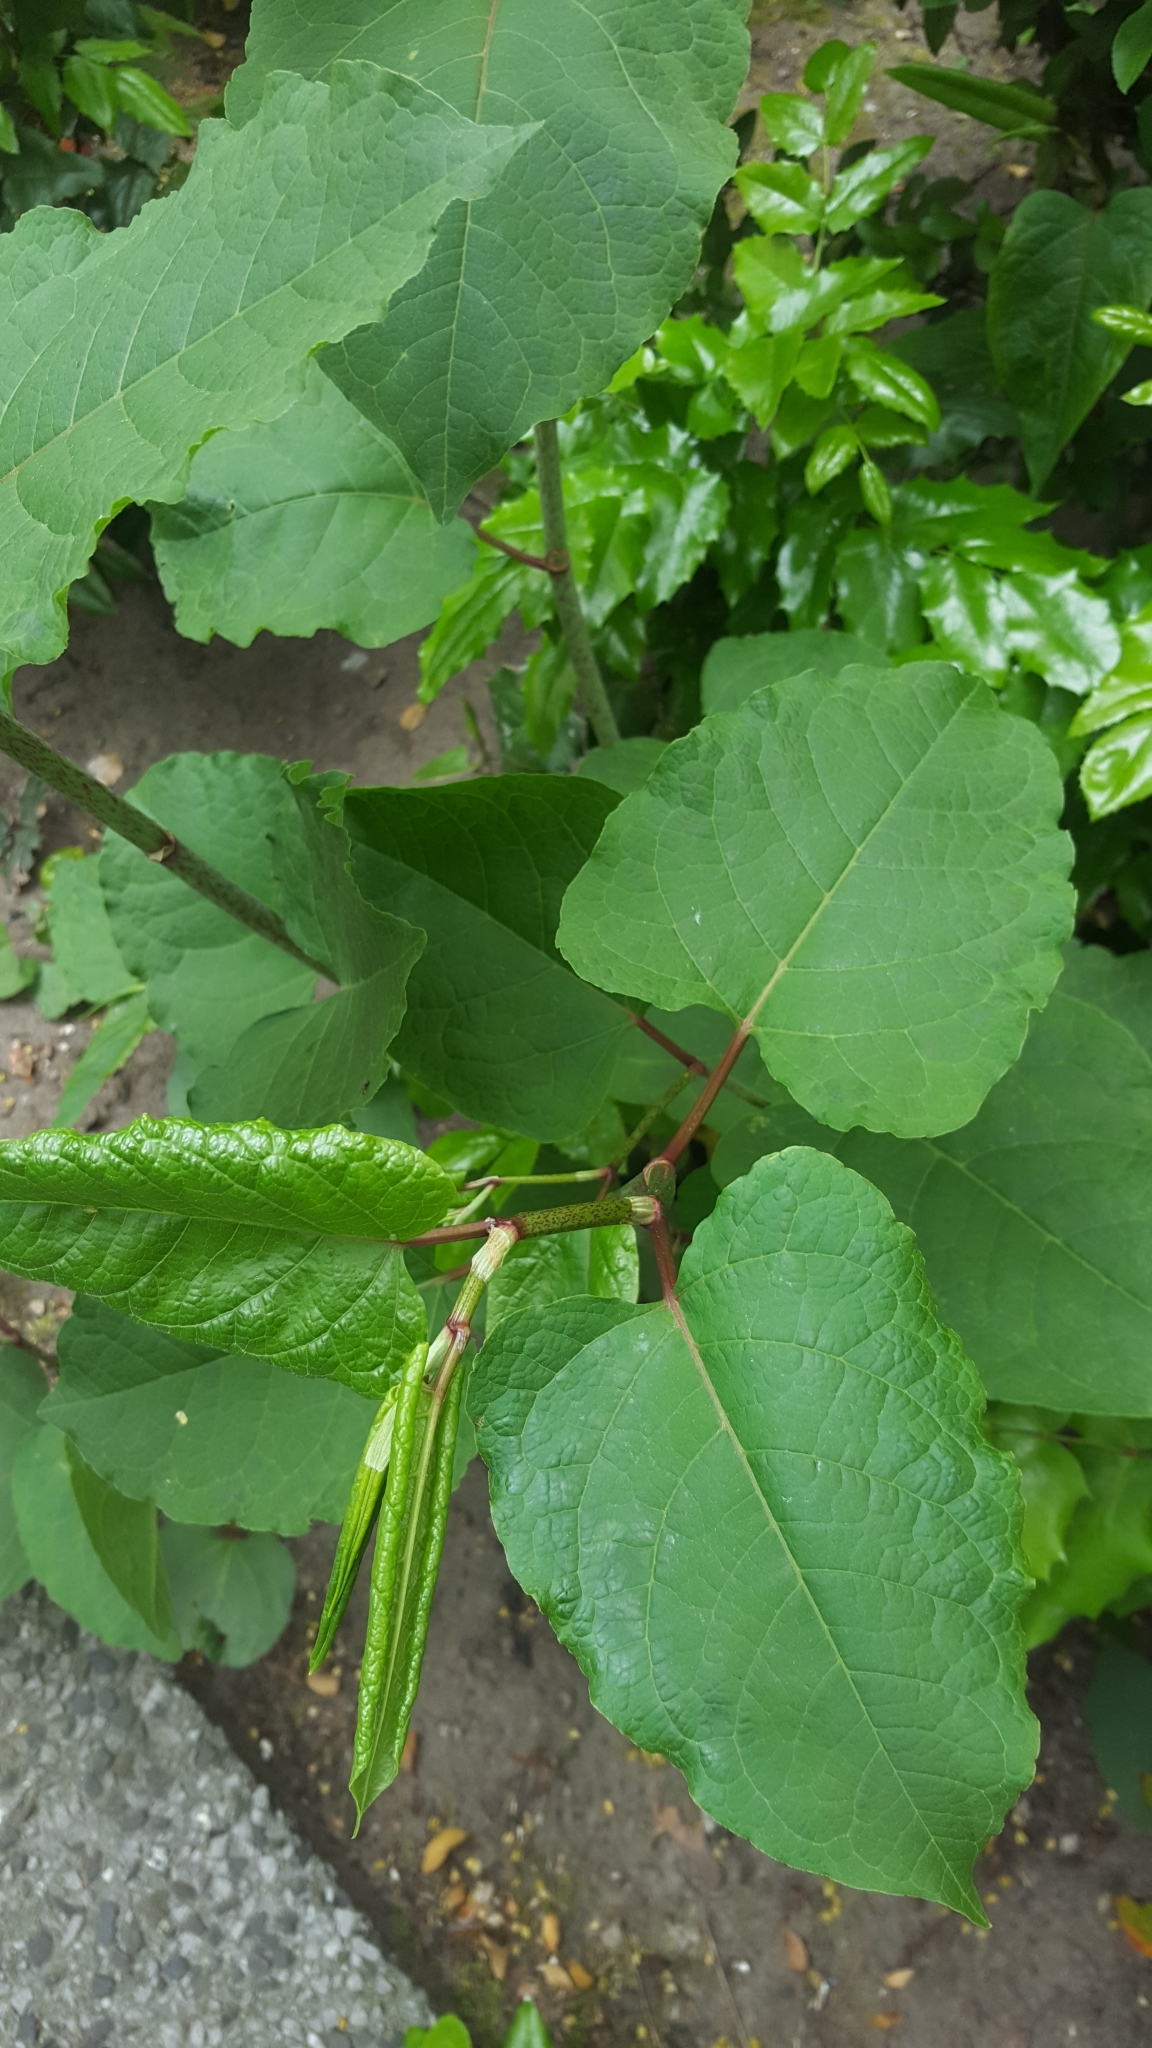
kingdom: Plantae
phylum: Tracheophyta
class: Magnoliopsida
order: Caryophyllales
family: Polygonaceae
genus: Reynoutria
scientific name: Reynoutria bohemica
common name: Bohemian knotweed
